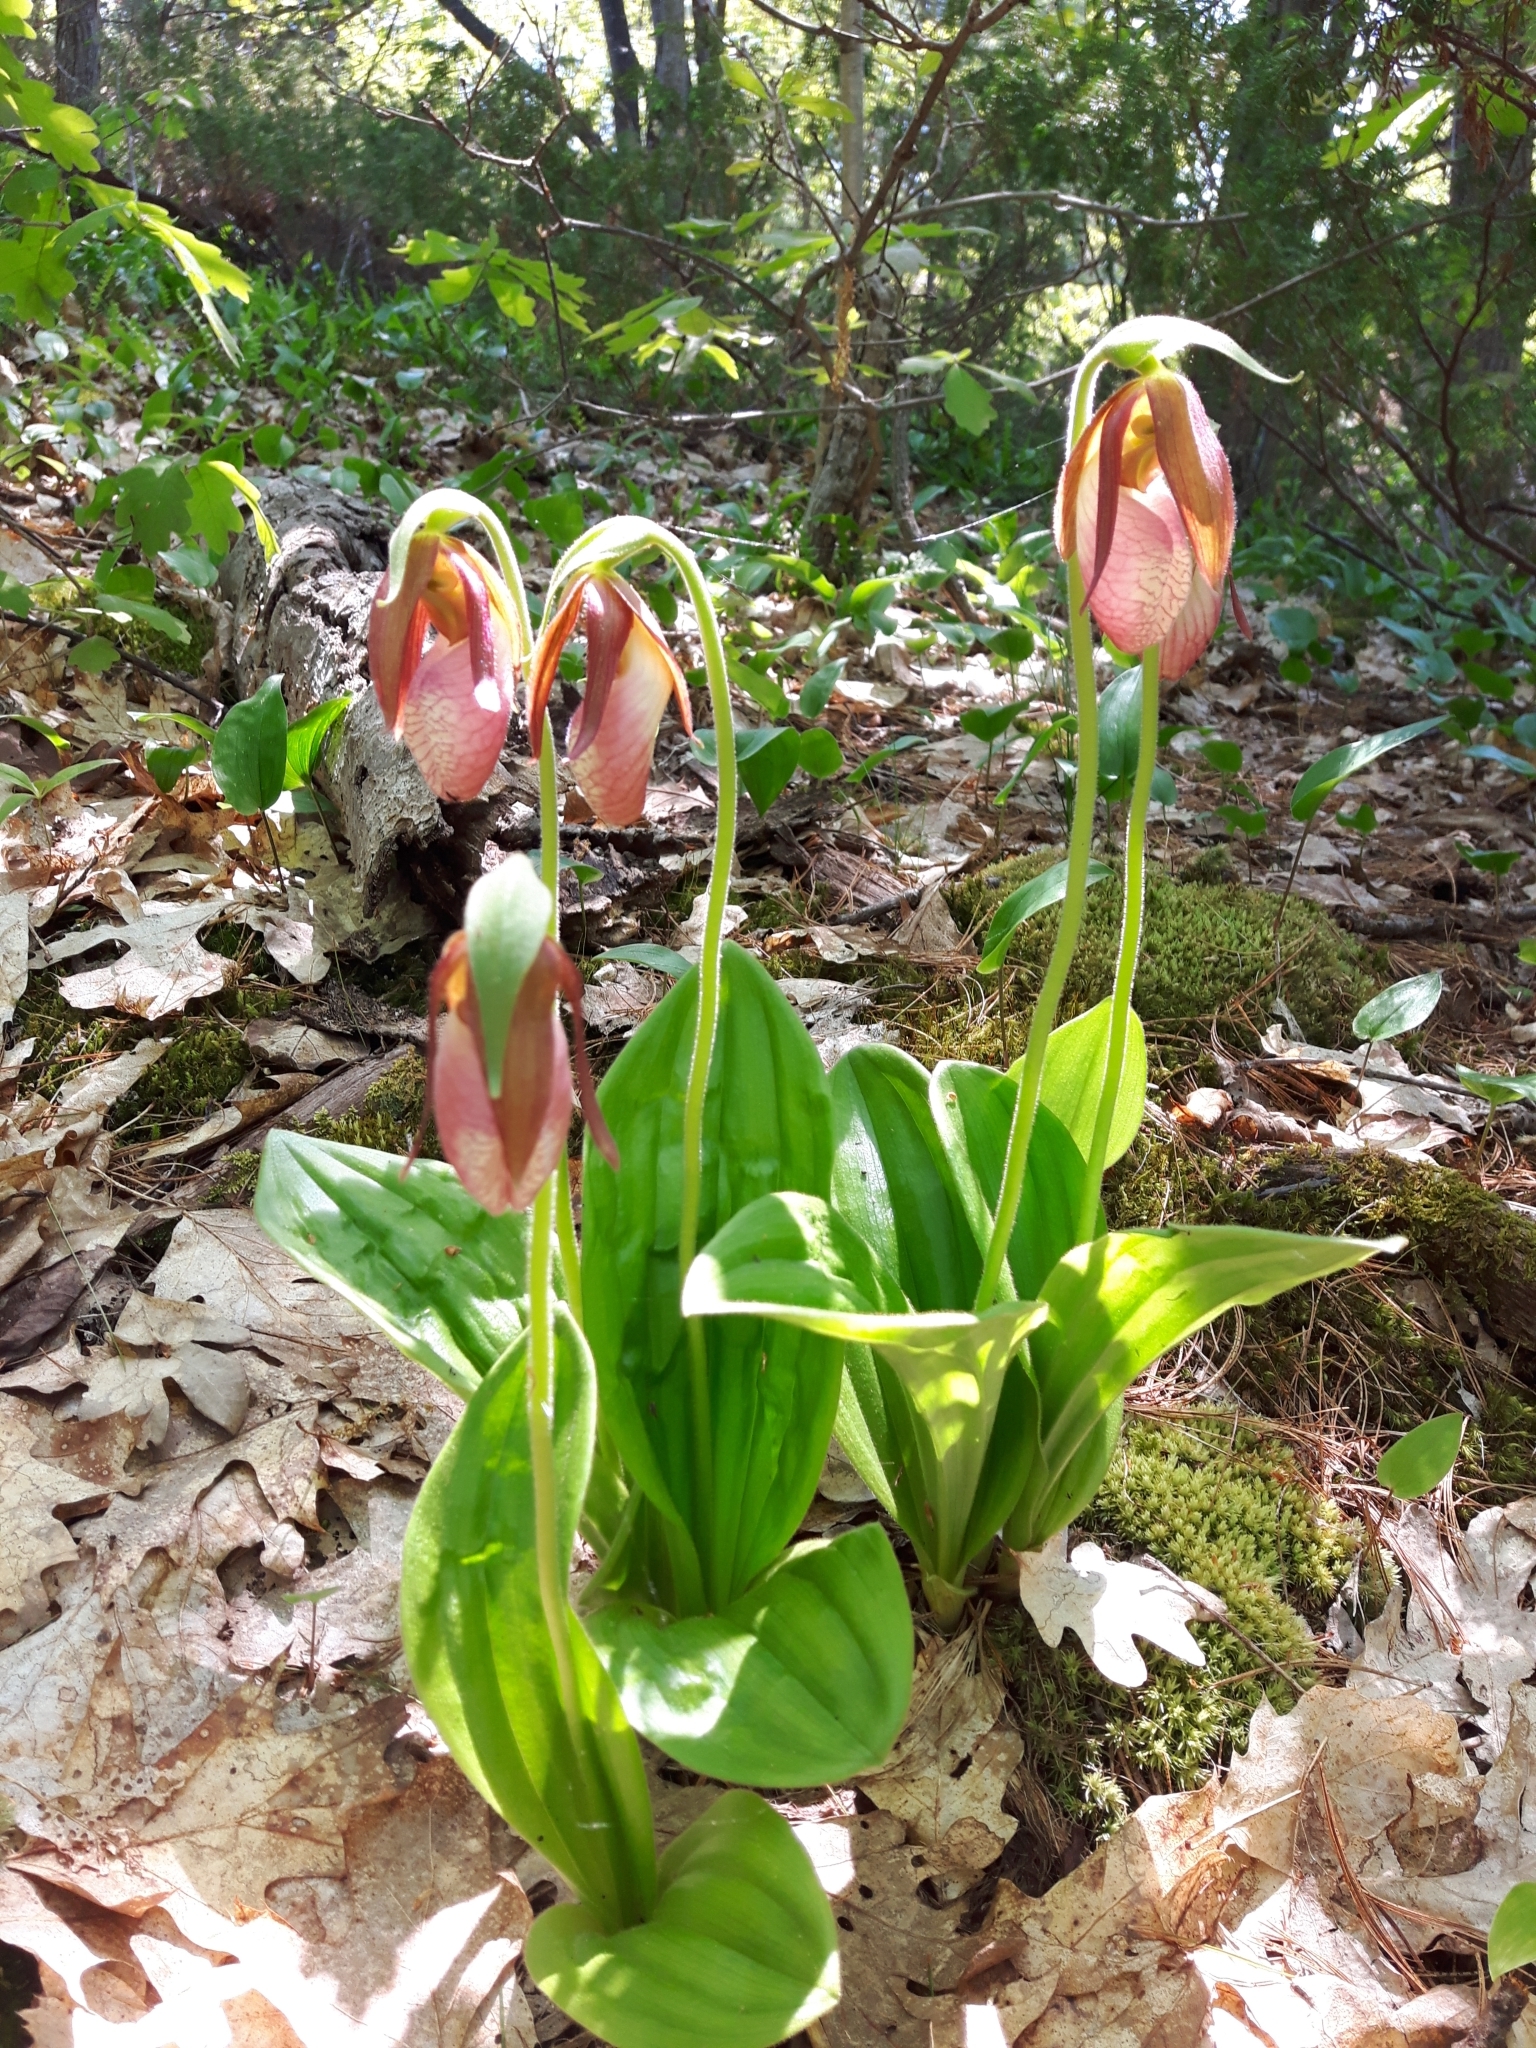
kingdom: Plantae
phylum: Tracheophyta
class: Liliopsida
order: Asparagales
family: Orchidaceae
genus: Cypripedium
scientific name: Cypripedium acaule
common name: Pink lady's-slipper
